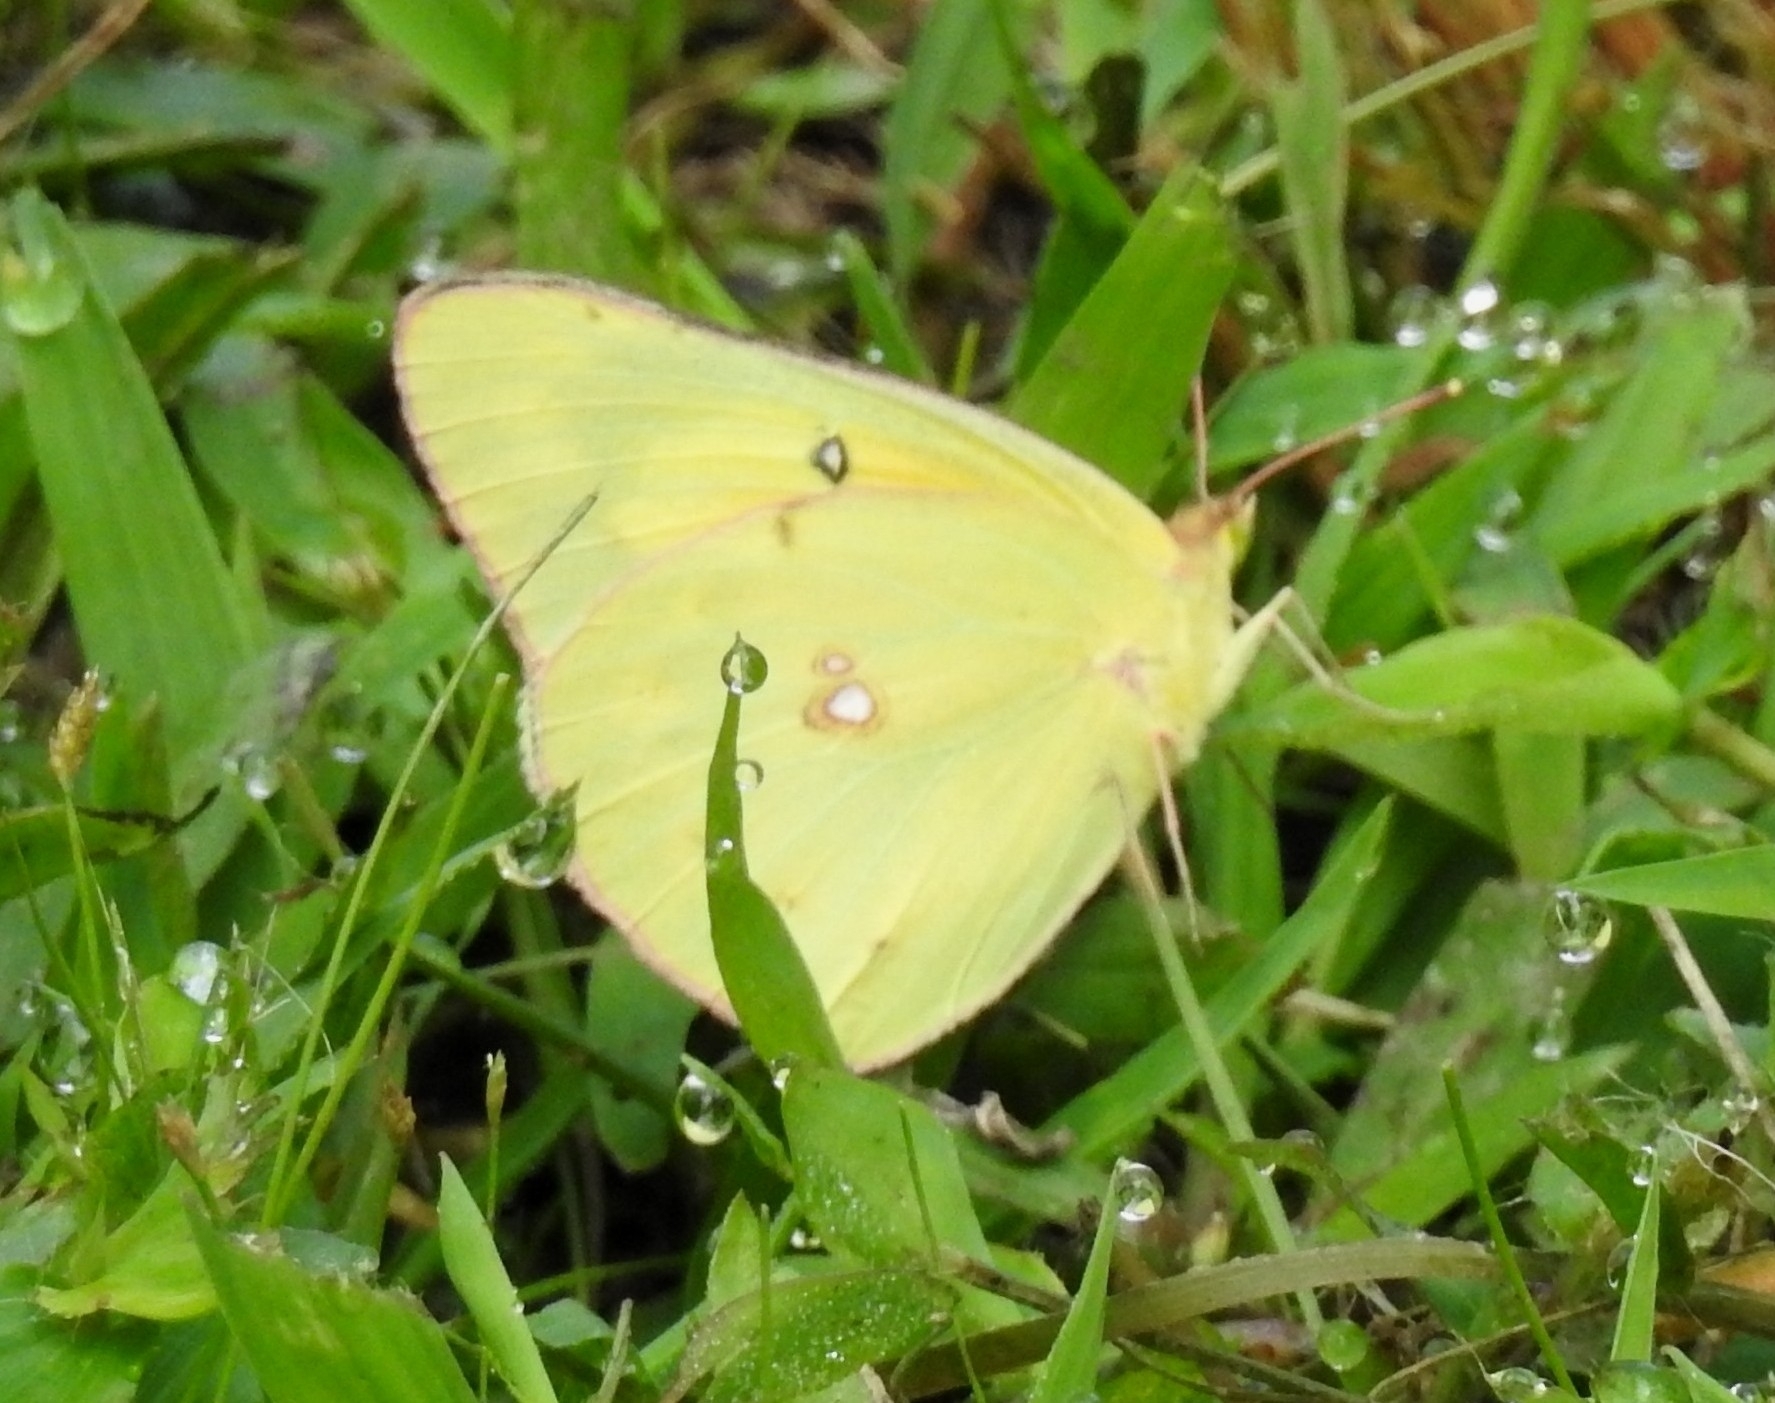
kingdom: Animalia
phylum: Arthropoda
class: Insecta
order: Lepidoptera
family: Pieridae
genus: Colias
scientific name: Colias eurytheme
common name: Alfalfa butterfly
